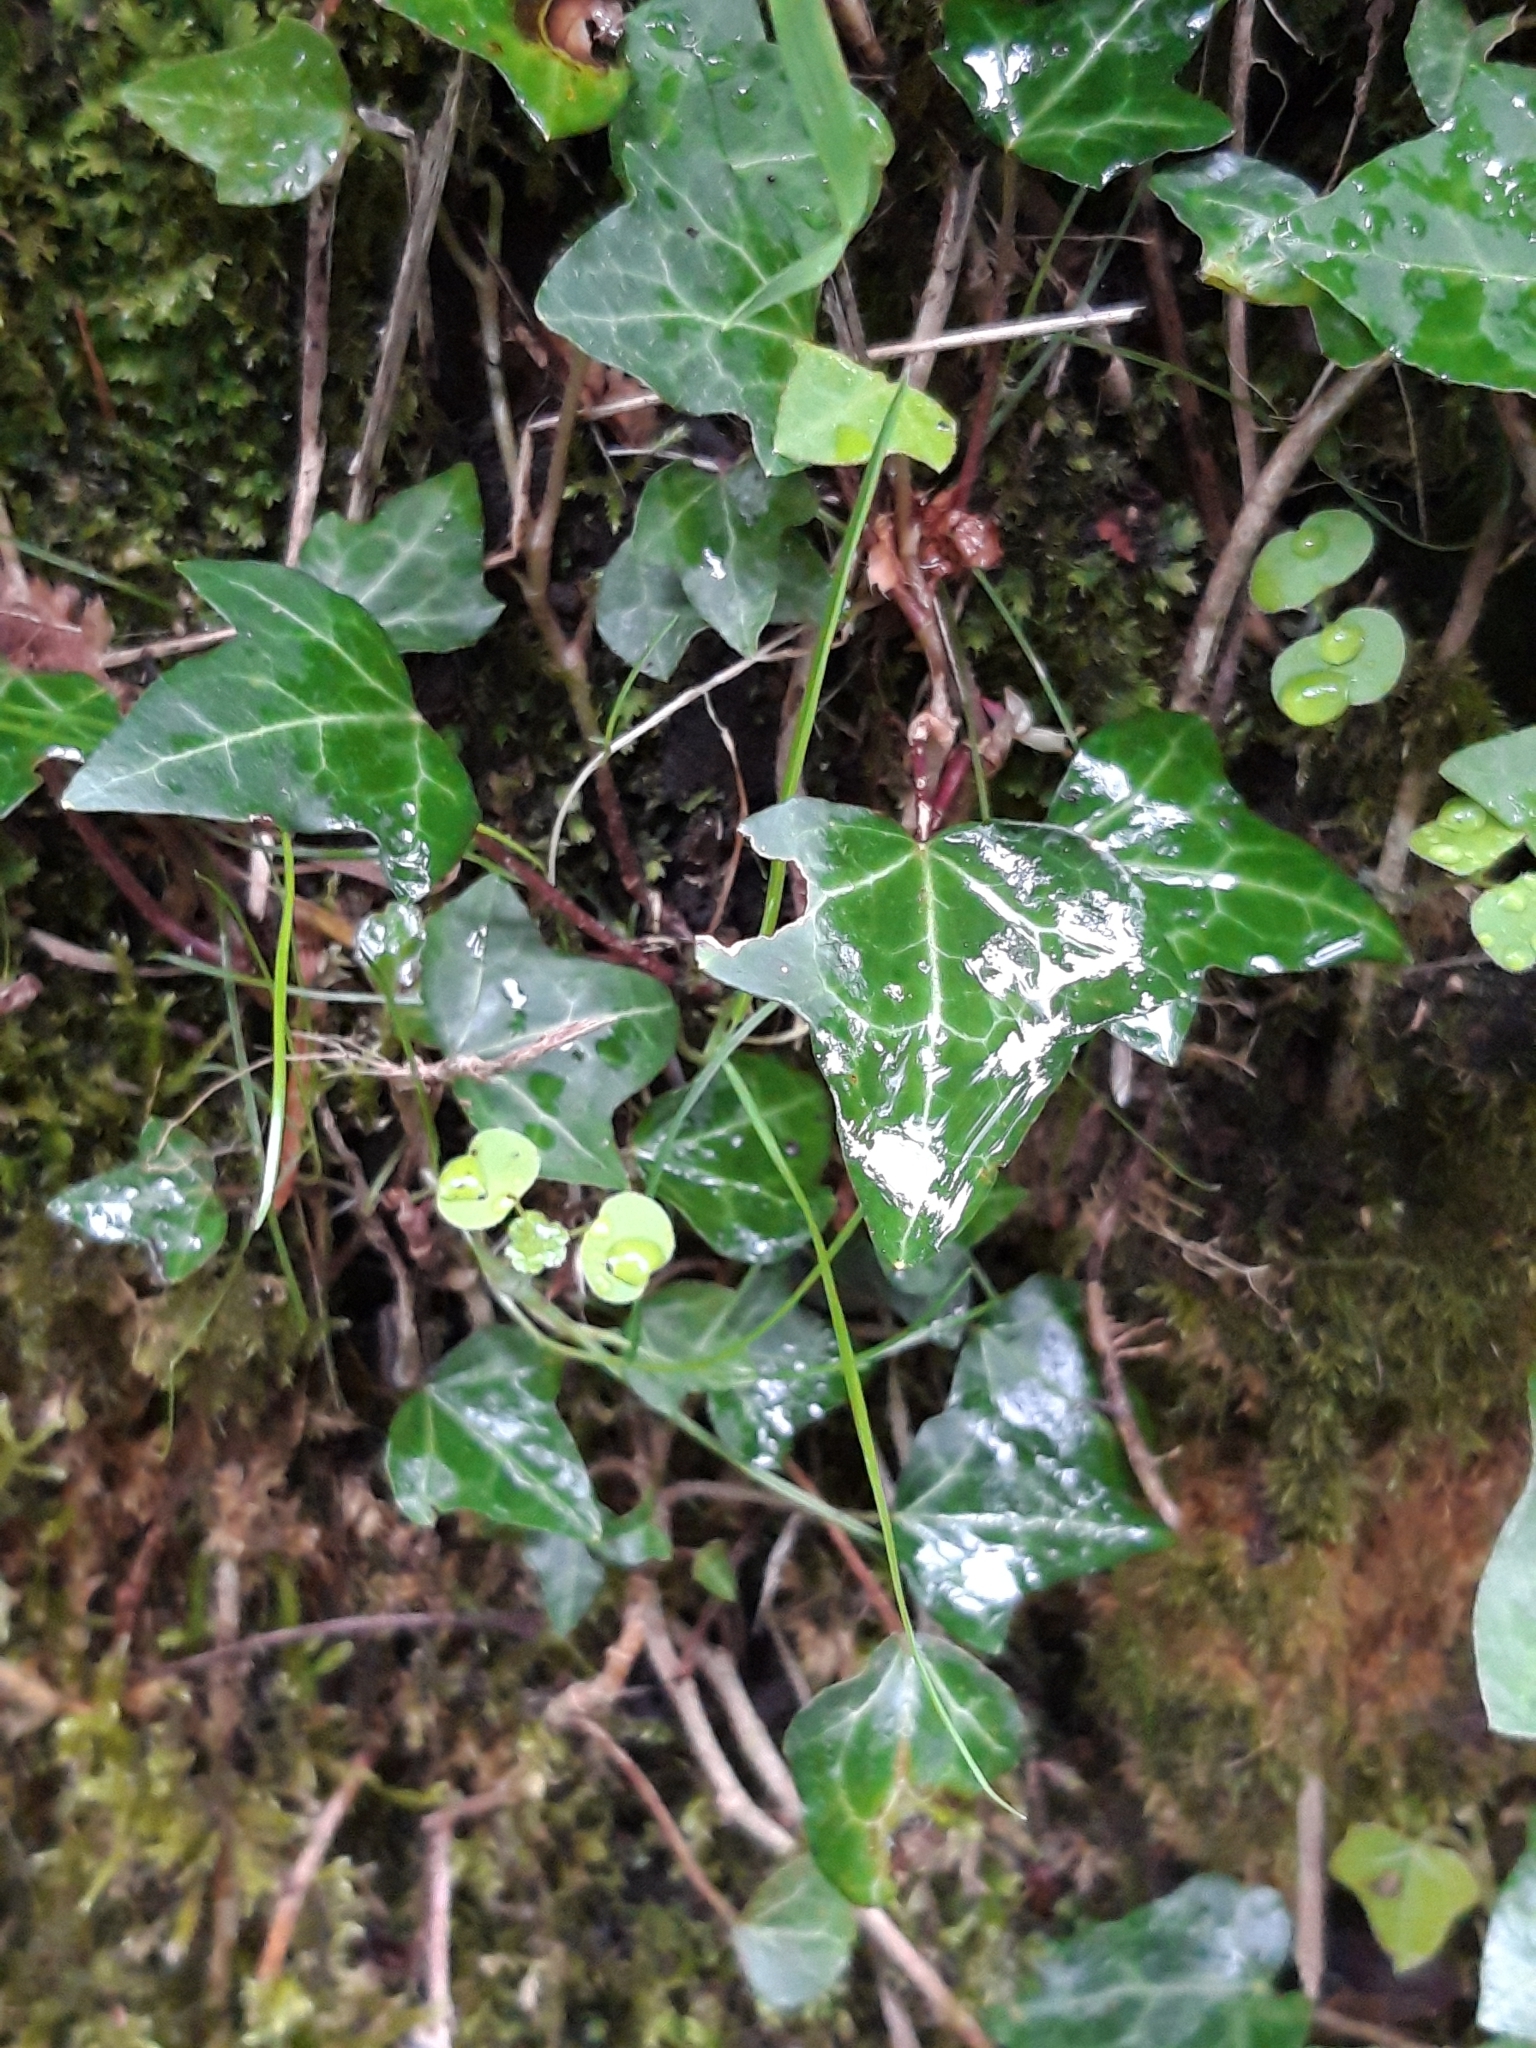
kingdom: Plantae
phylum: Tracheophyta
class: Magnoliopsida
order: Apiales
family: Araliaceae
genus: Hedera
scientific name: Hedera helix
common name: Ivy
